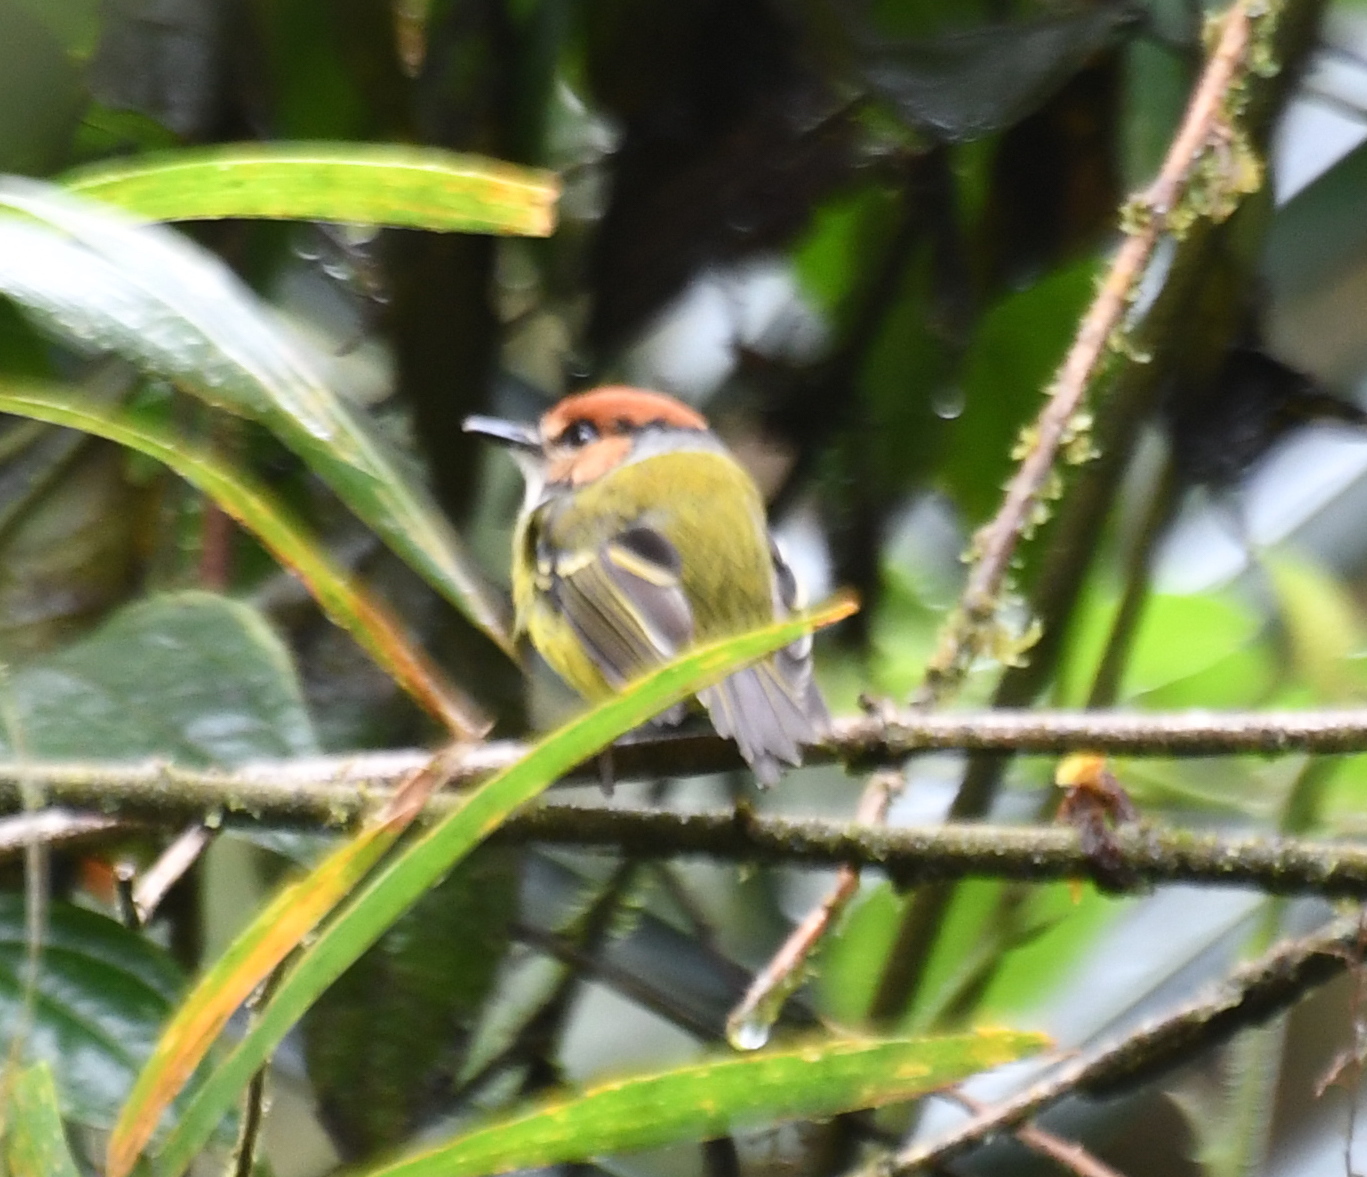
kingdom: Animalia
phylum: Chordata
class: Aves
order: Passeriformes
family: Tyrannidae
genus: Poecilotriccus
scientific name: Poecilotriccus ruficeps
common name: Rufous-crowned tody-flycatcher
